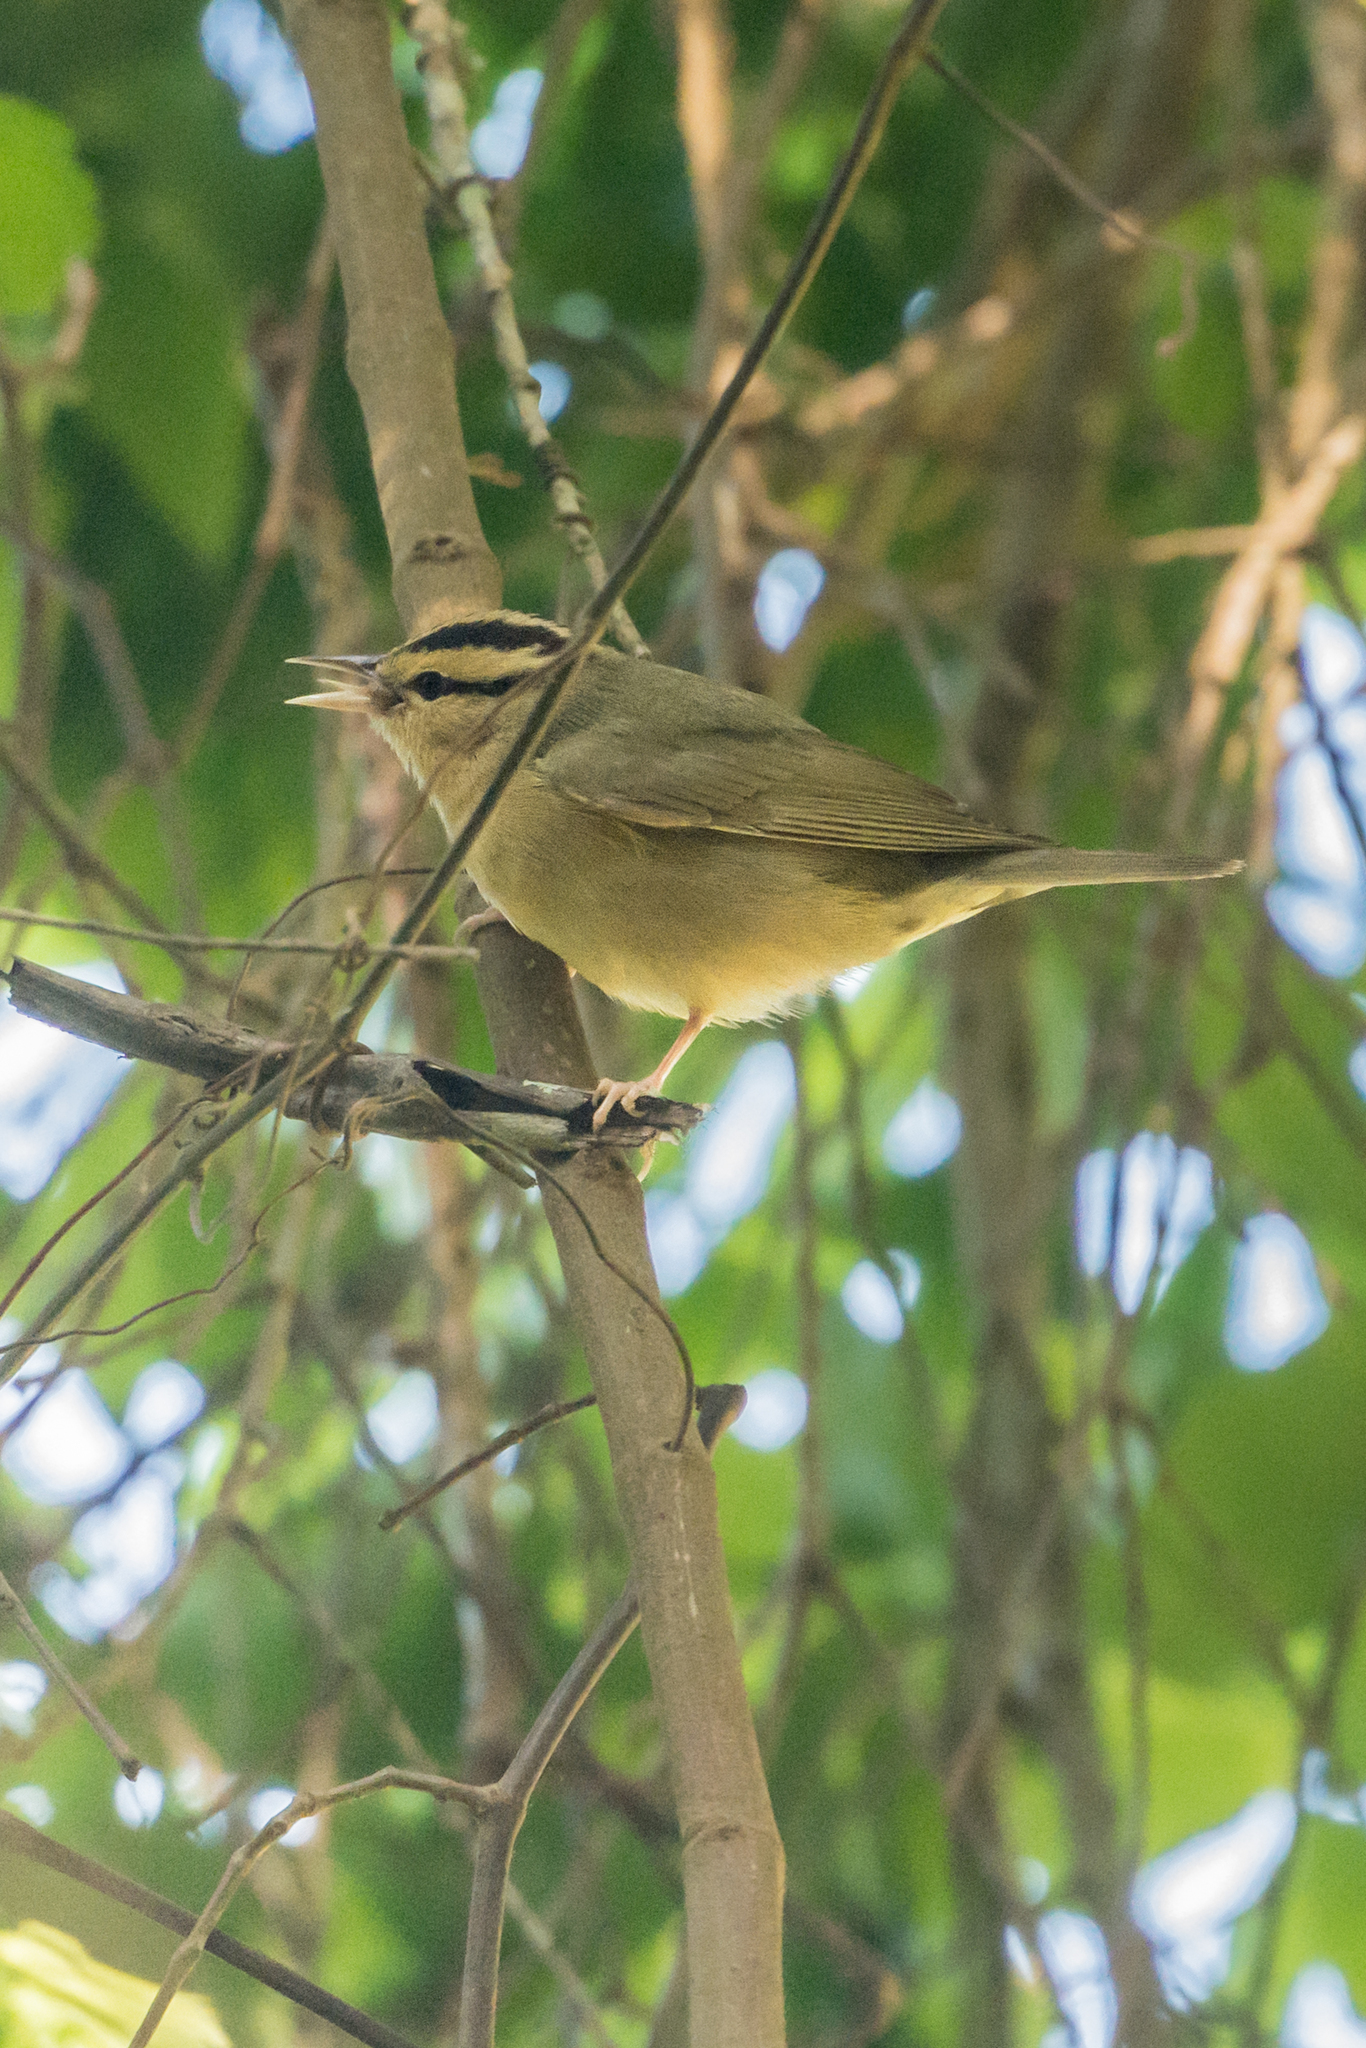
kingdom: Animalia
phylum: Chordata
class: Aves
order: Passeriformes
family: Parulidae
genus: Helmitheros
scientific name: Helmitheros vermivorum
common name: Worm-eating warbler
